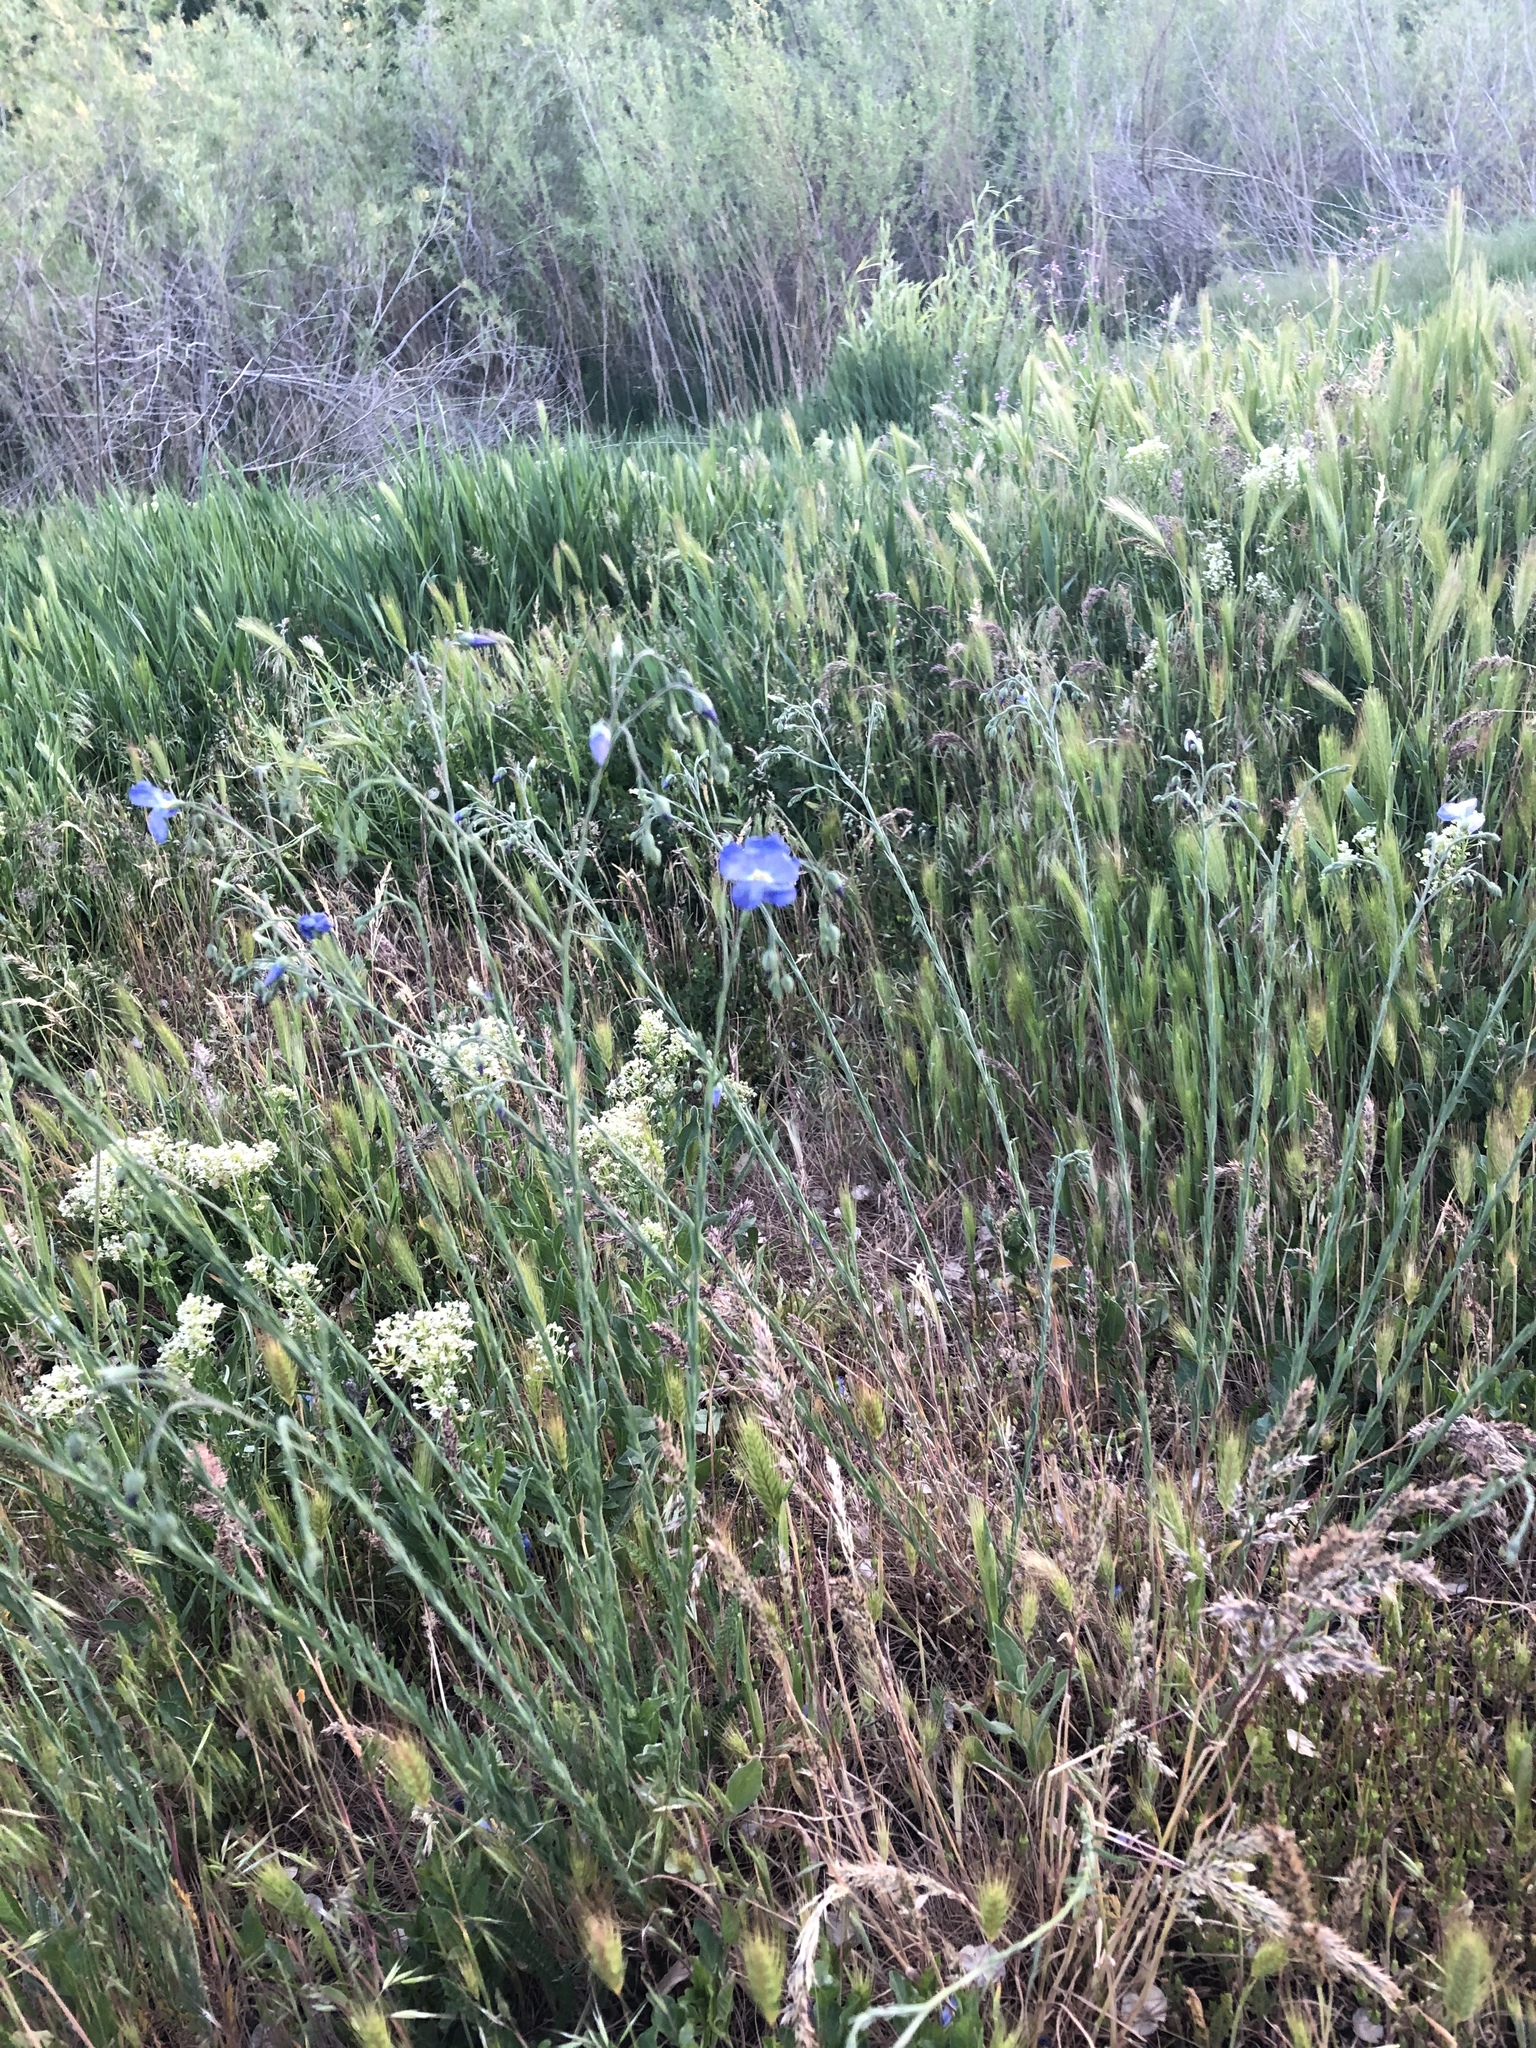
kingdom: Plantae
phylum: Tracheophyta
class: Magnoliopsida
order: Malpighiales
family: Linaceae
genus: Linum
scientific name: Linum lewisii
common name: Prairie flax
